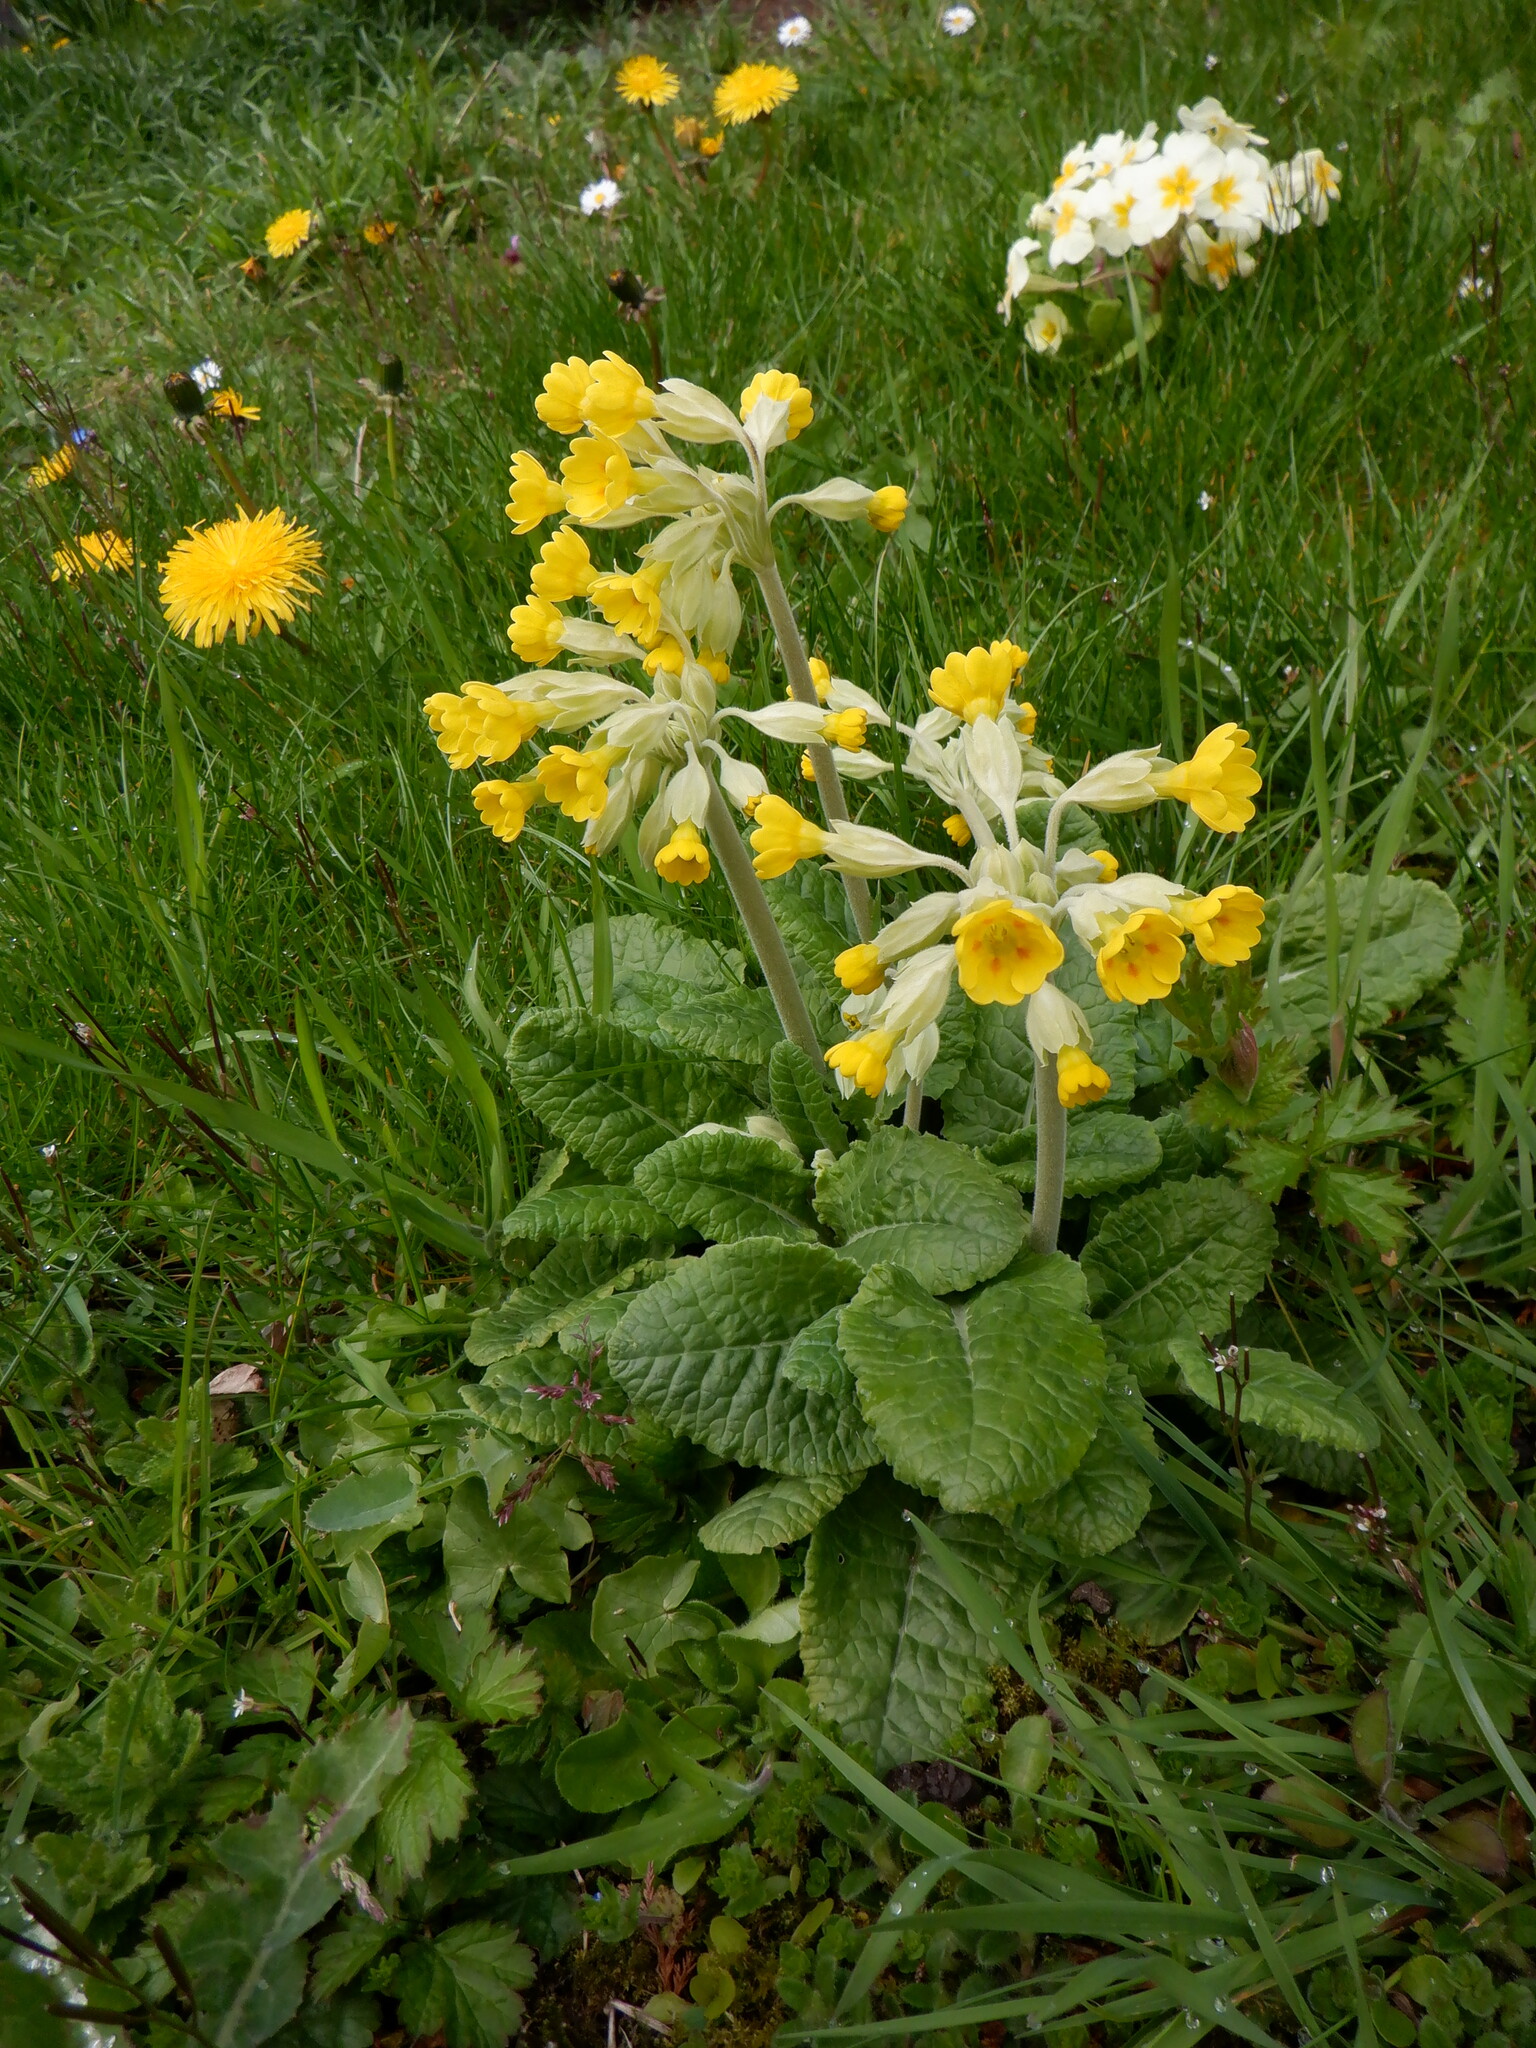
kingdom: Plantae
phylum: Tracheophyta
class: Magnoliopsida
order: Ericales
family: Primulaceae
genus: Primula
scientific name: Primula veris
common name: Cowslip
